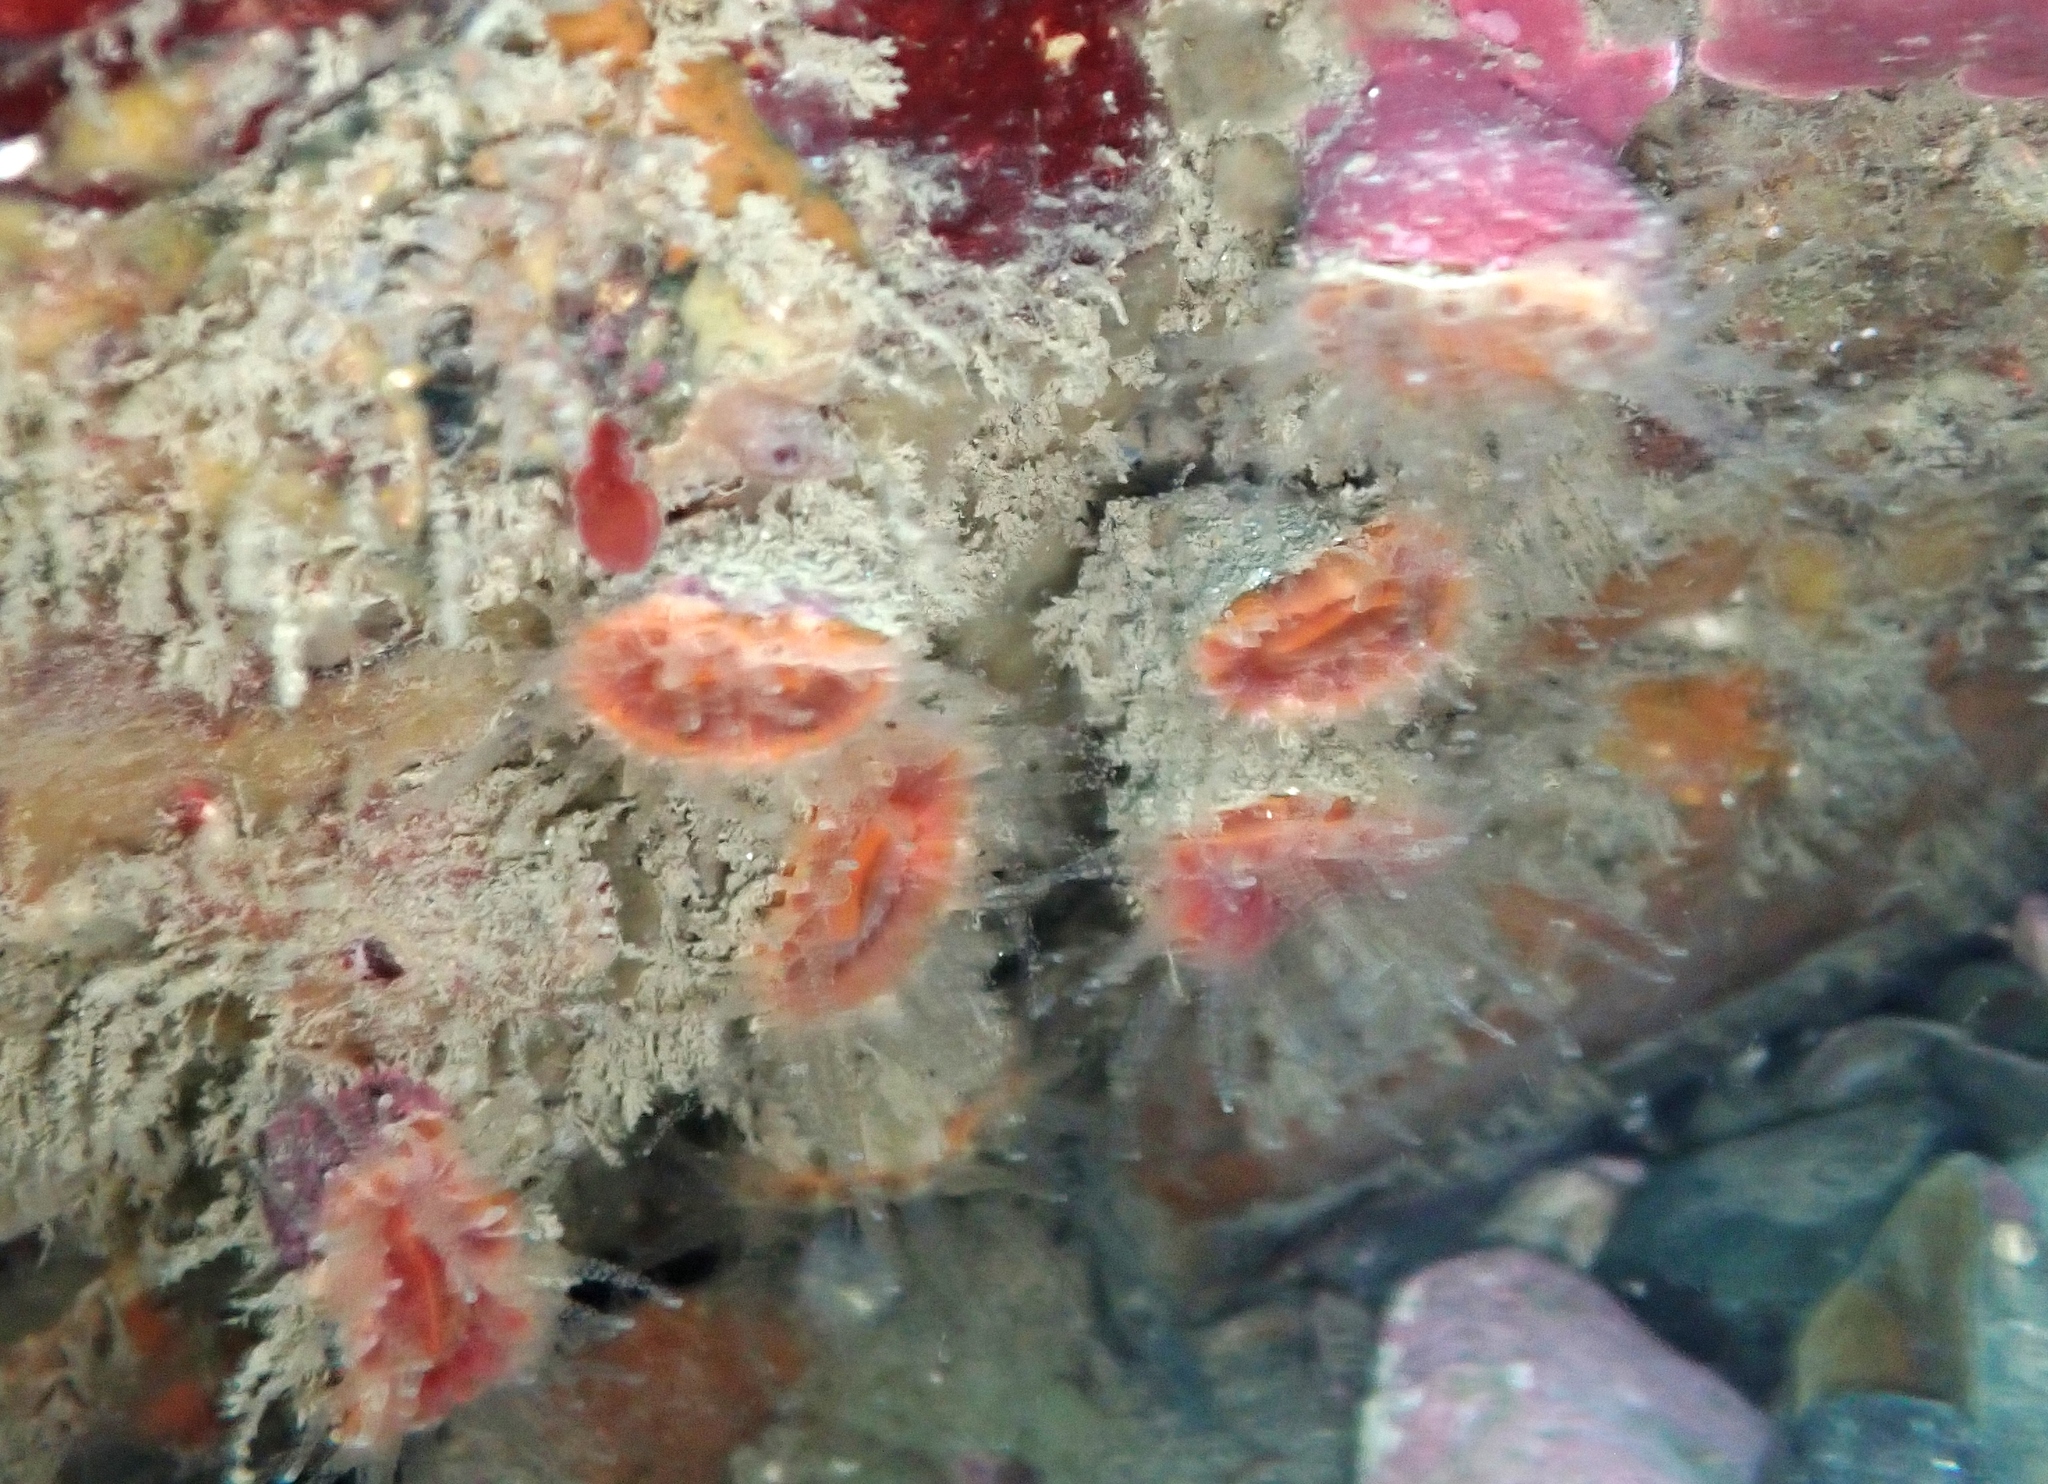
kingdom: Animalia
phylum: Cnidaria
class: Anthozoa
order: Scleractinia
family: Flabellidae
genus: Monomyces
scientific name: Monomyces rubrum
